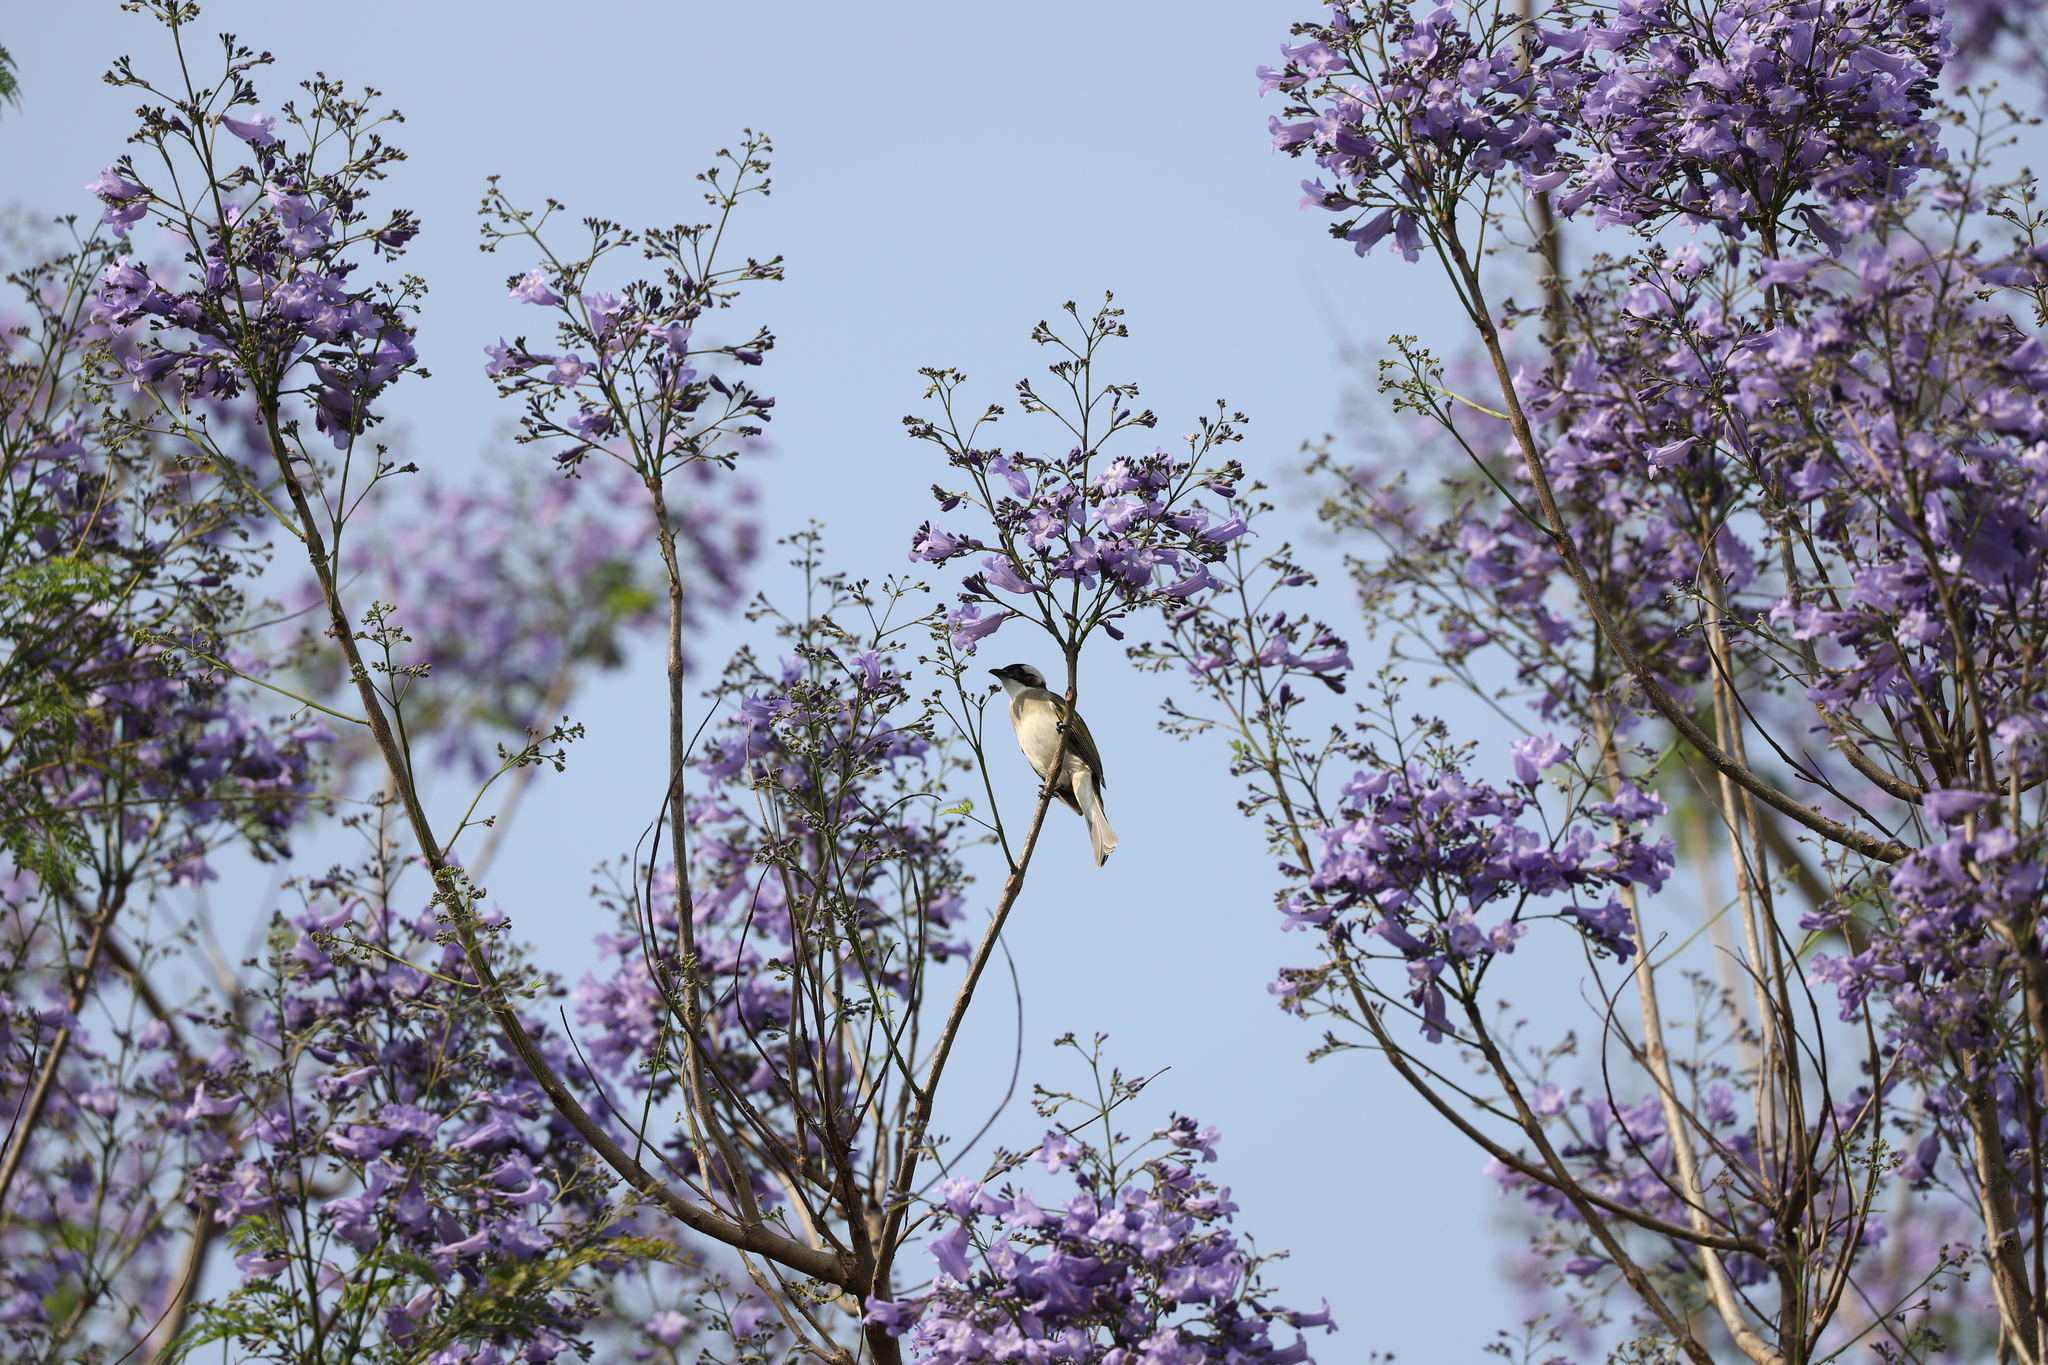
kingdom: Animalia
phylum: Chordata
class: Aves
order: Passeriformes
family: Pycnonotidae
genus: Pycnonotus
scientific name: Pycnonotus sinensis
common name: Light-vented bulbul
